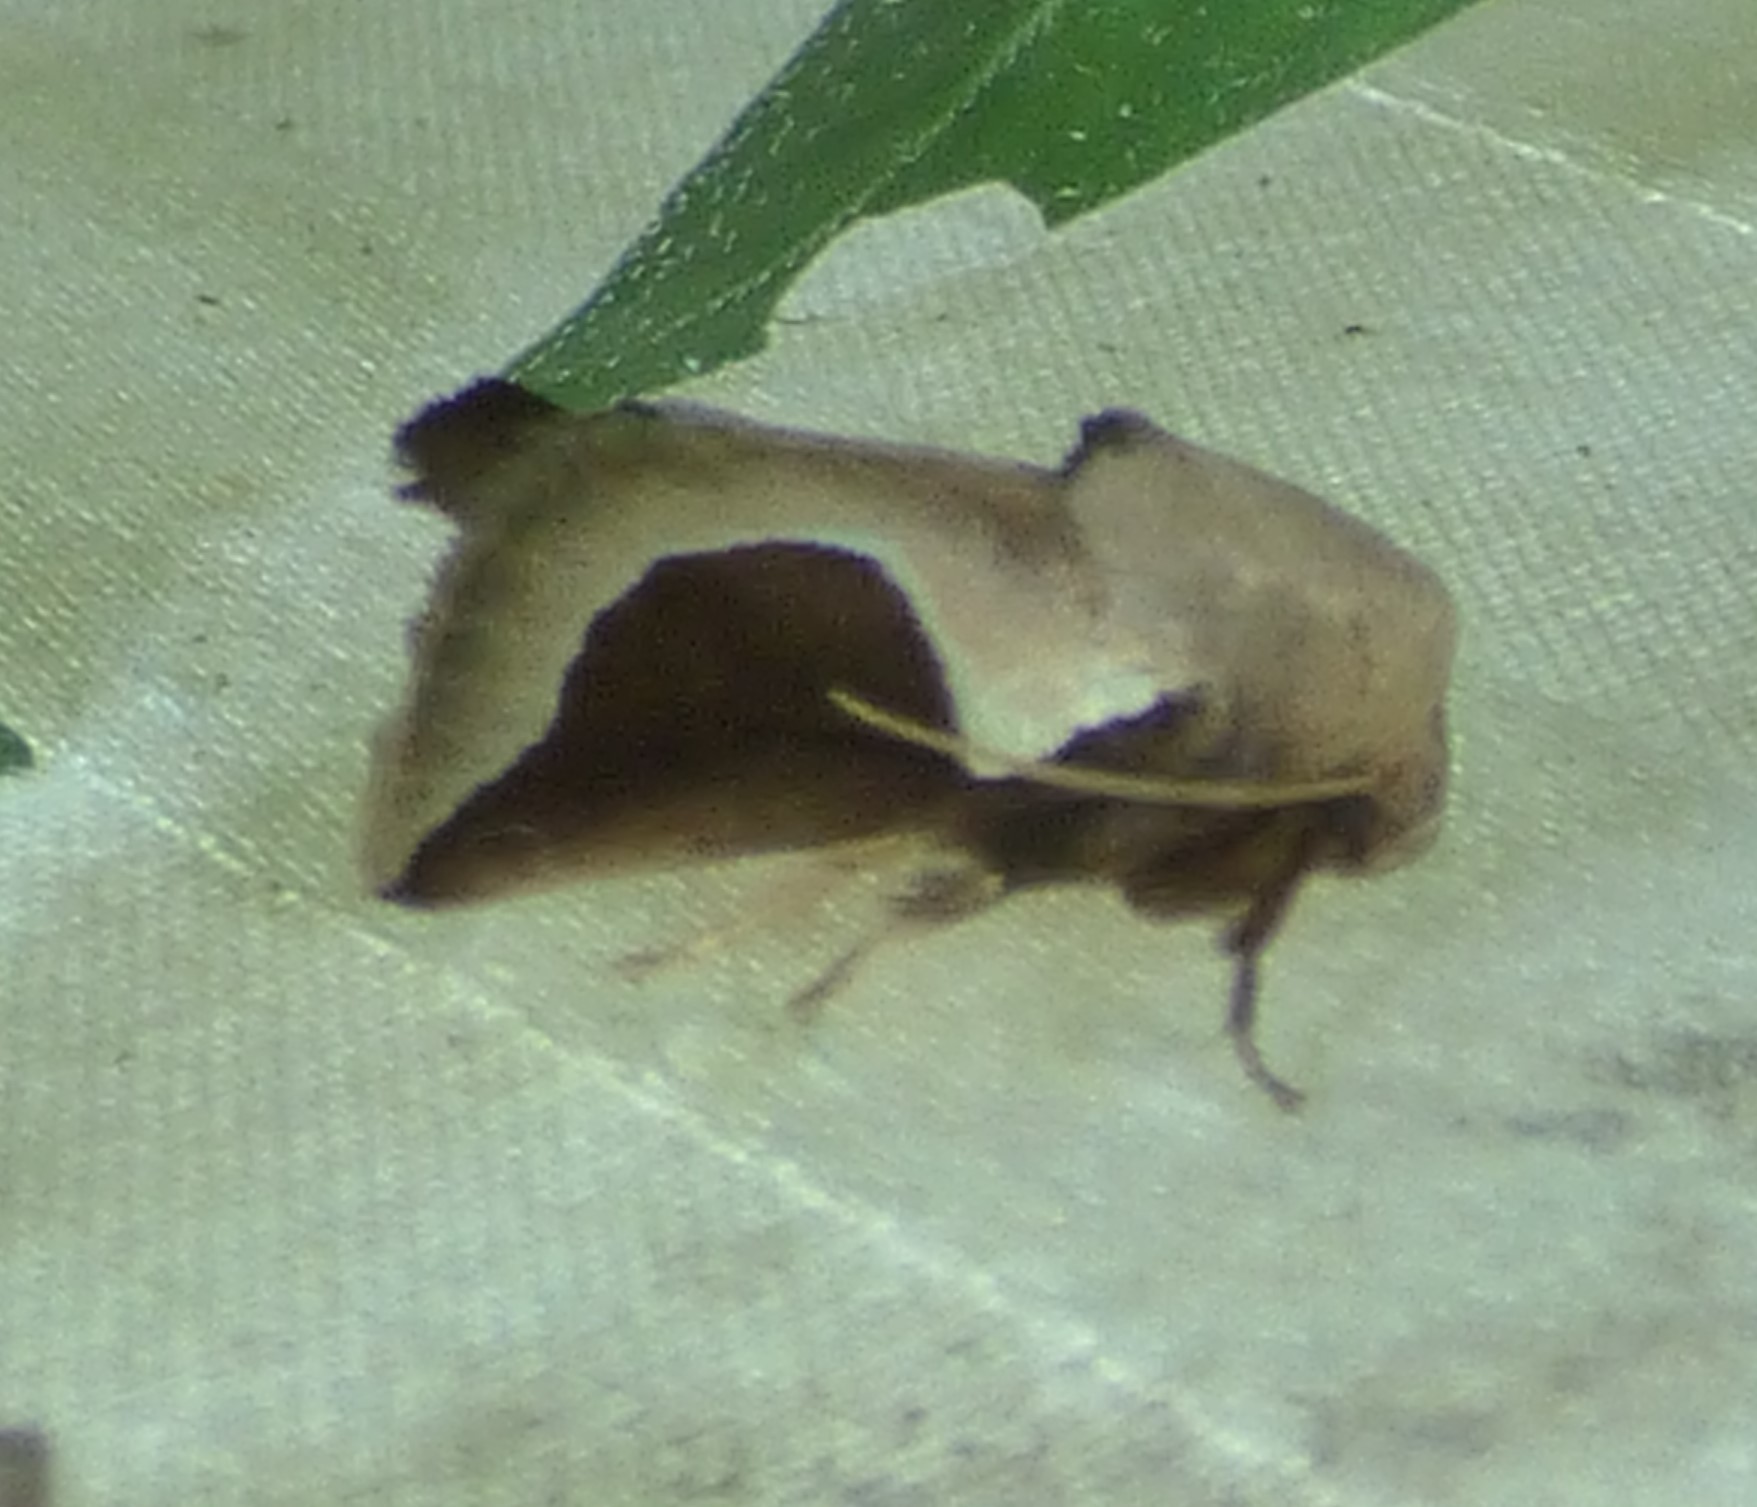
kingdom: Animalia
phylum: Arthropoda
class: Insecta
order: Lepidoptera
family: Limacodidae
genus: Prolimacodes
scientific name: Prolimacodes badia
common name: Skiff moth
